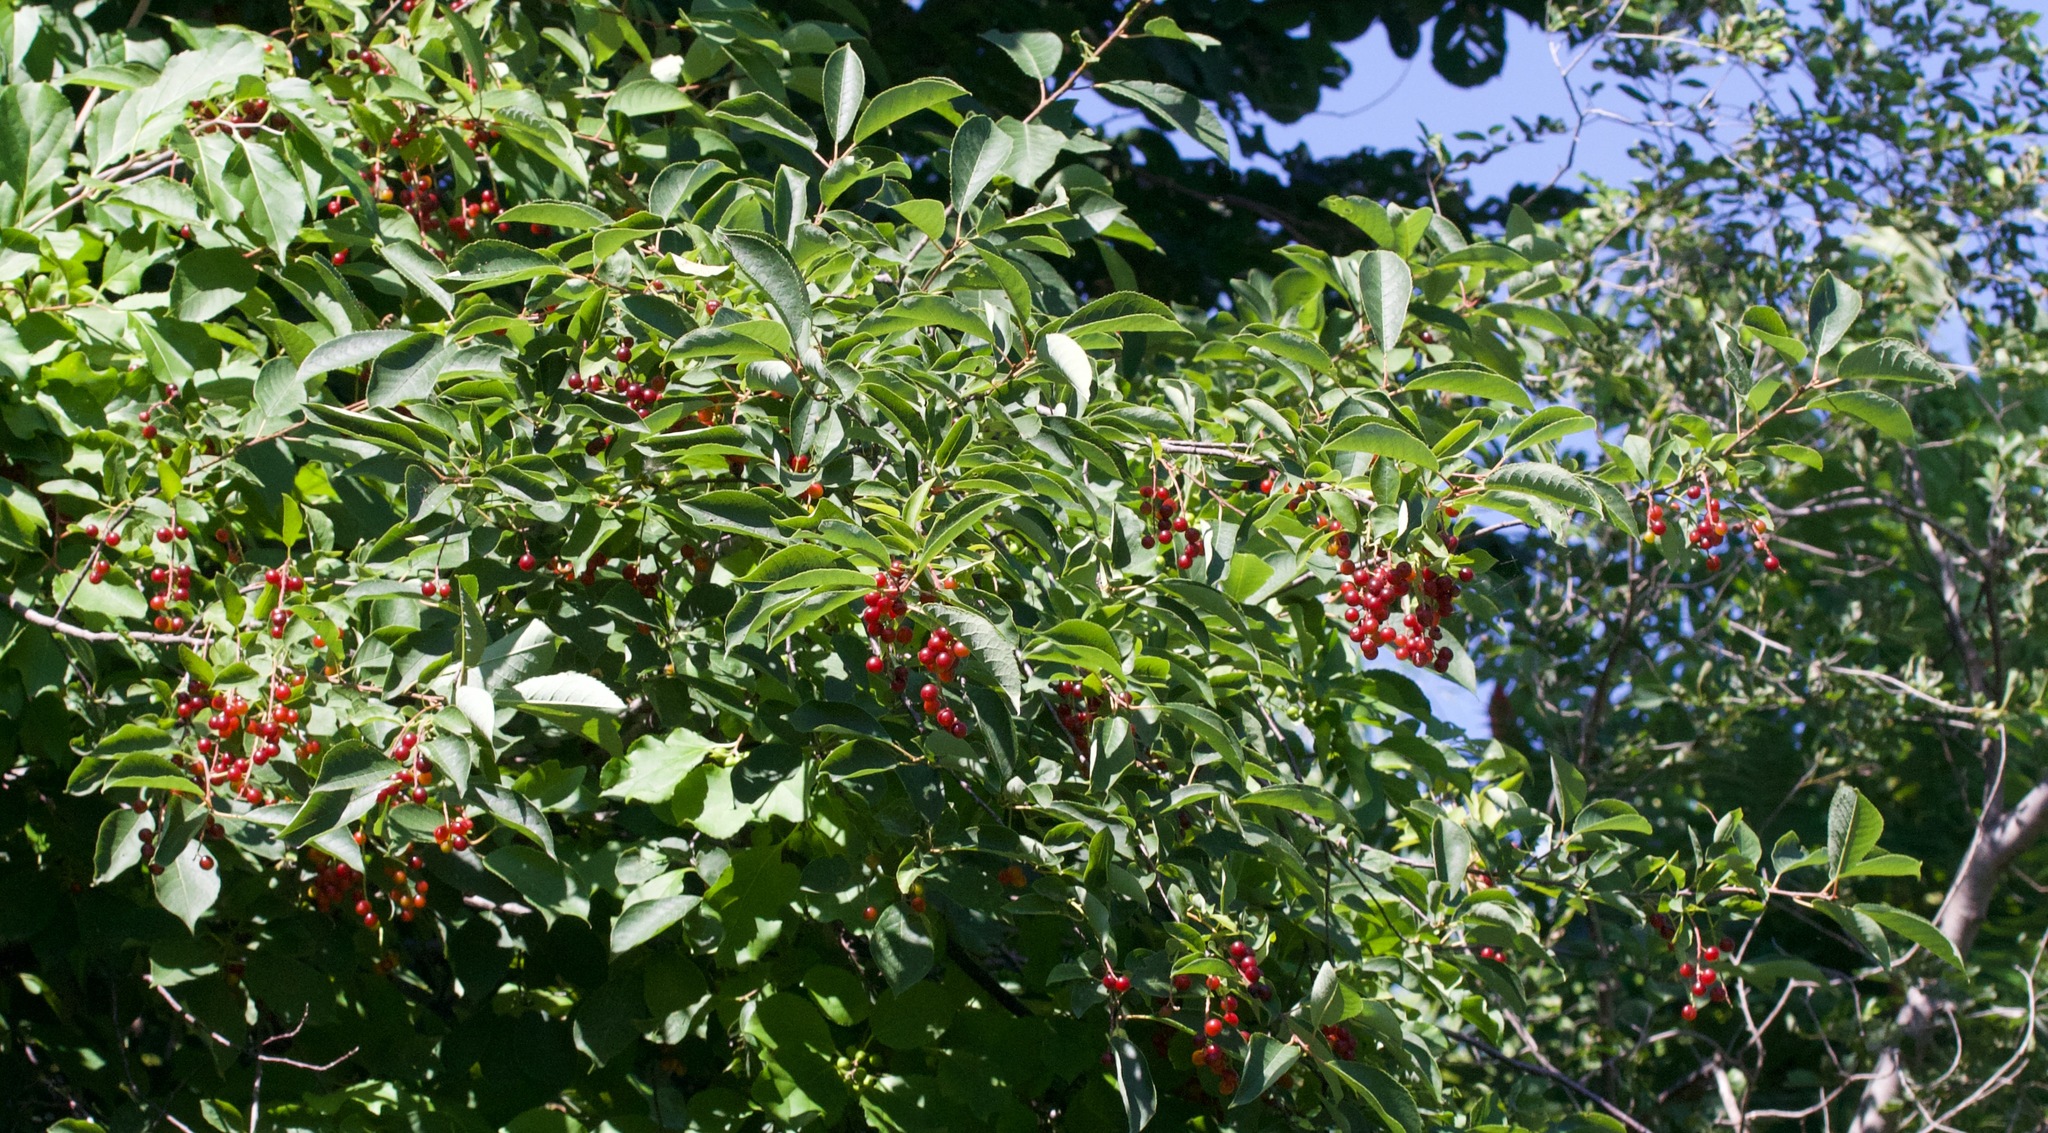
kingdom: Plantae
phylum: Tracheophyta
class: Magnoliopsida
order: Rosales
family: Rosaceae
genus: Prunus
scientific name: Prunus virginiana
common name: Chokecherry
